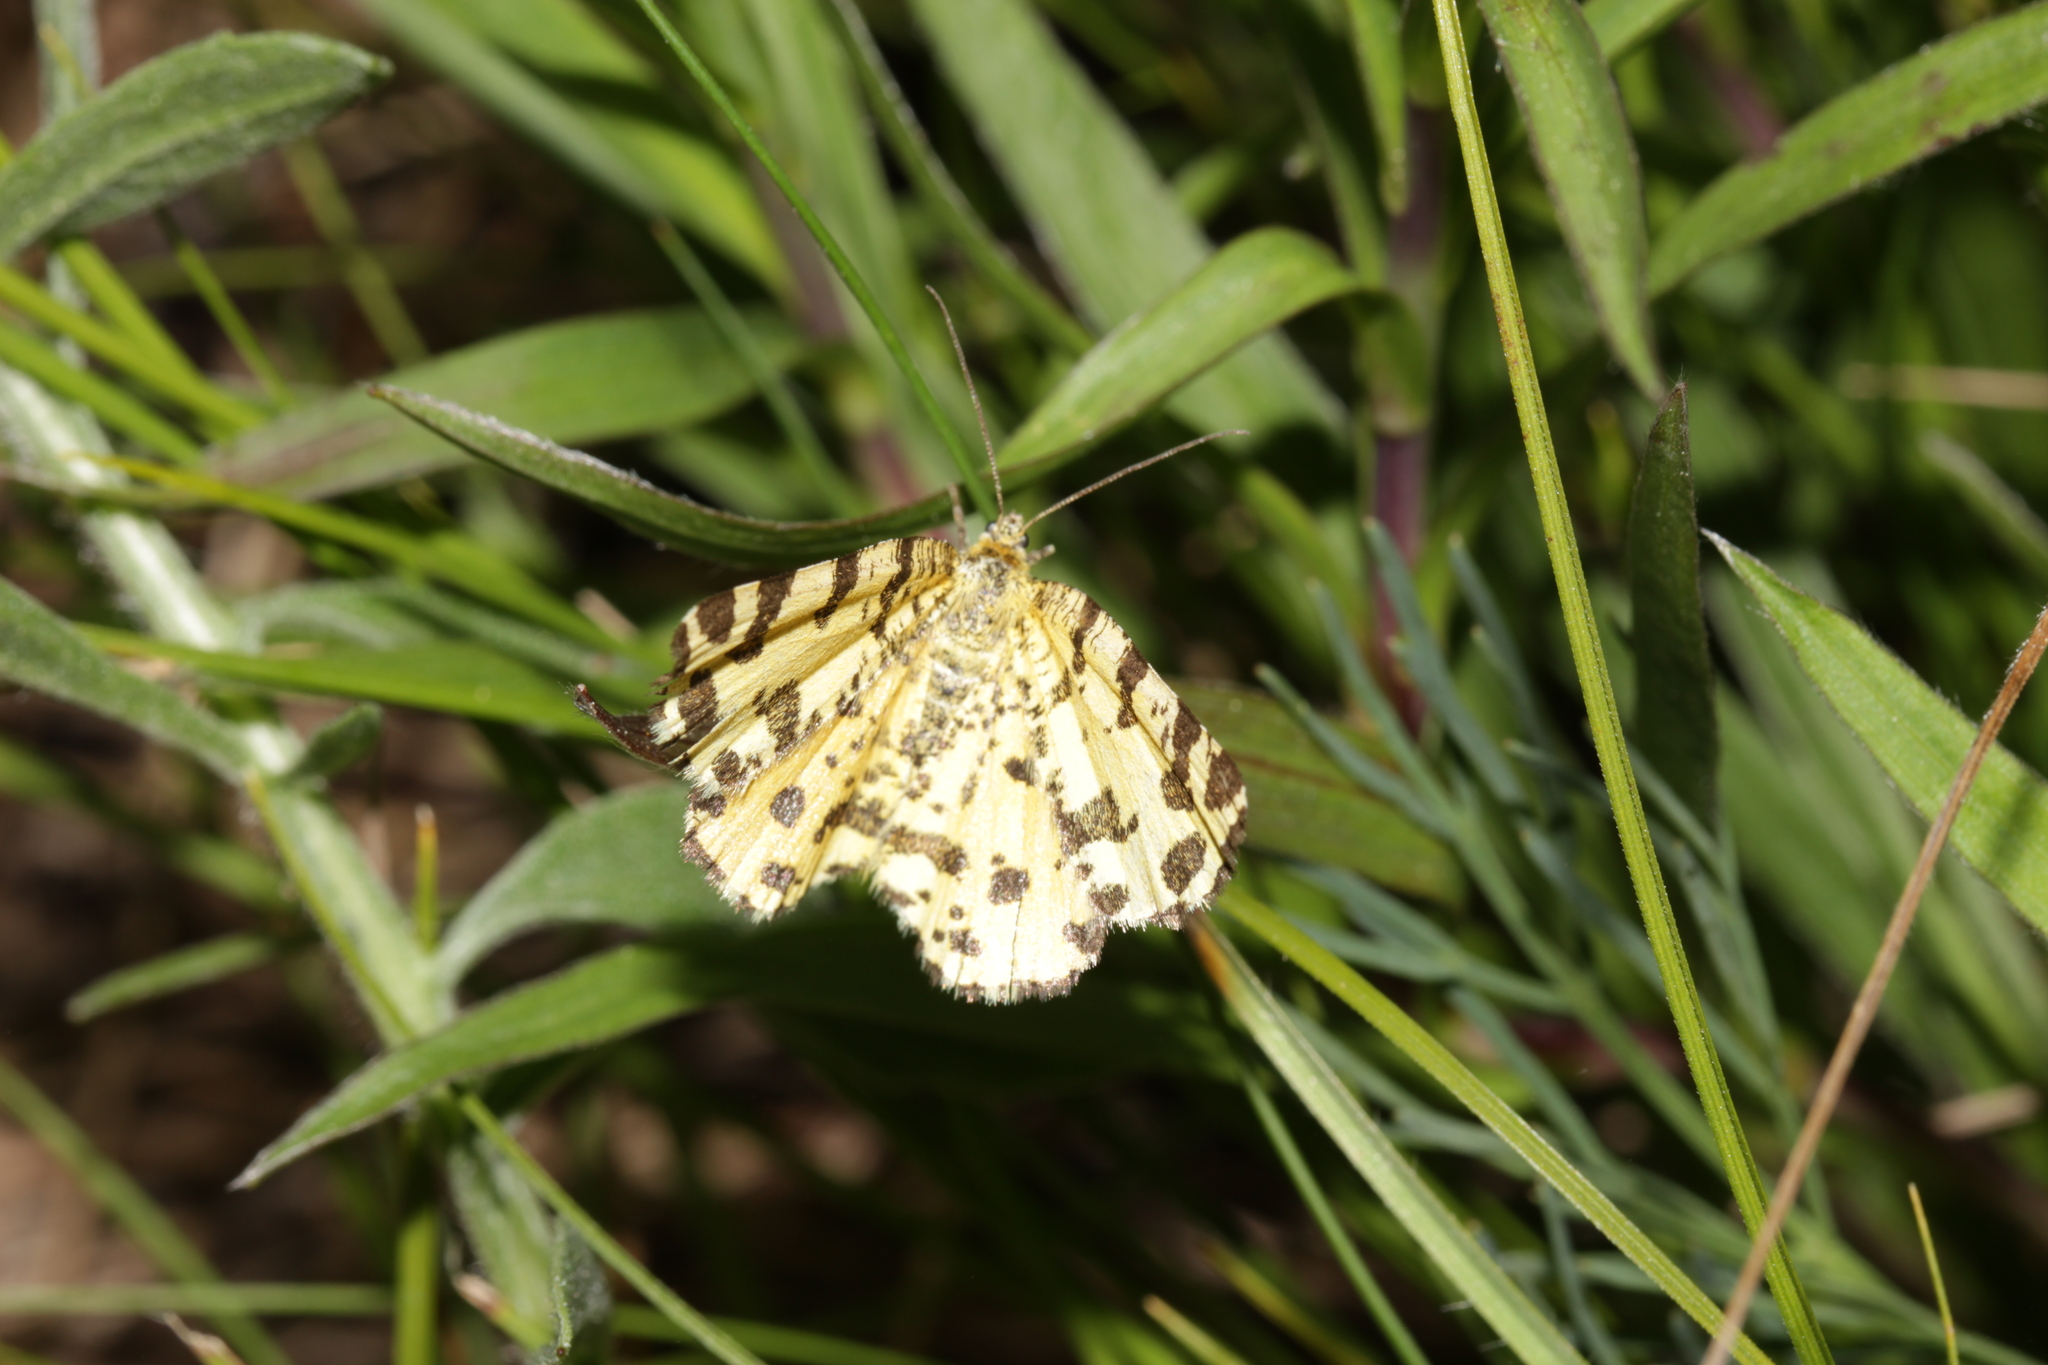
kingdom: Animalia
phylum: Arthropoda
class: Insecta
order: Lepidoptera
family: Geometridae
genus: Pseudopanthera
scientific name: Pseudopanthera macularia
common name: Speckled yellow
